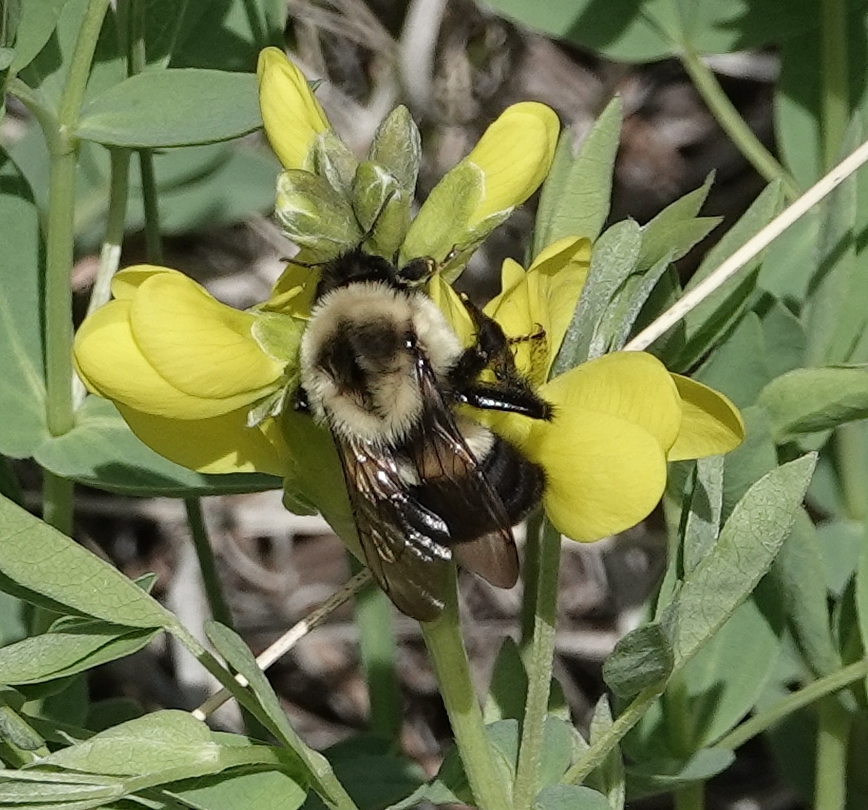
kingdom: Animalia
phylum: Arthropoda
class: Insecta
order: Hymenoptera
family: Apidae
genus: Bombus
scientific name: Bombus impatiens
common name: Common eastern bumble bee
